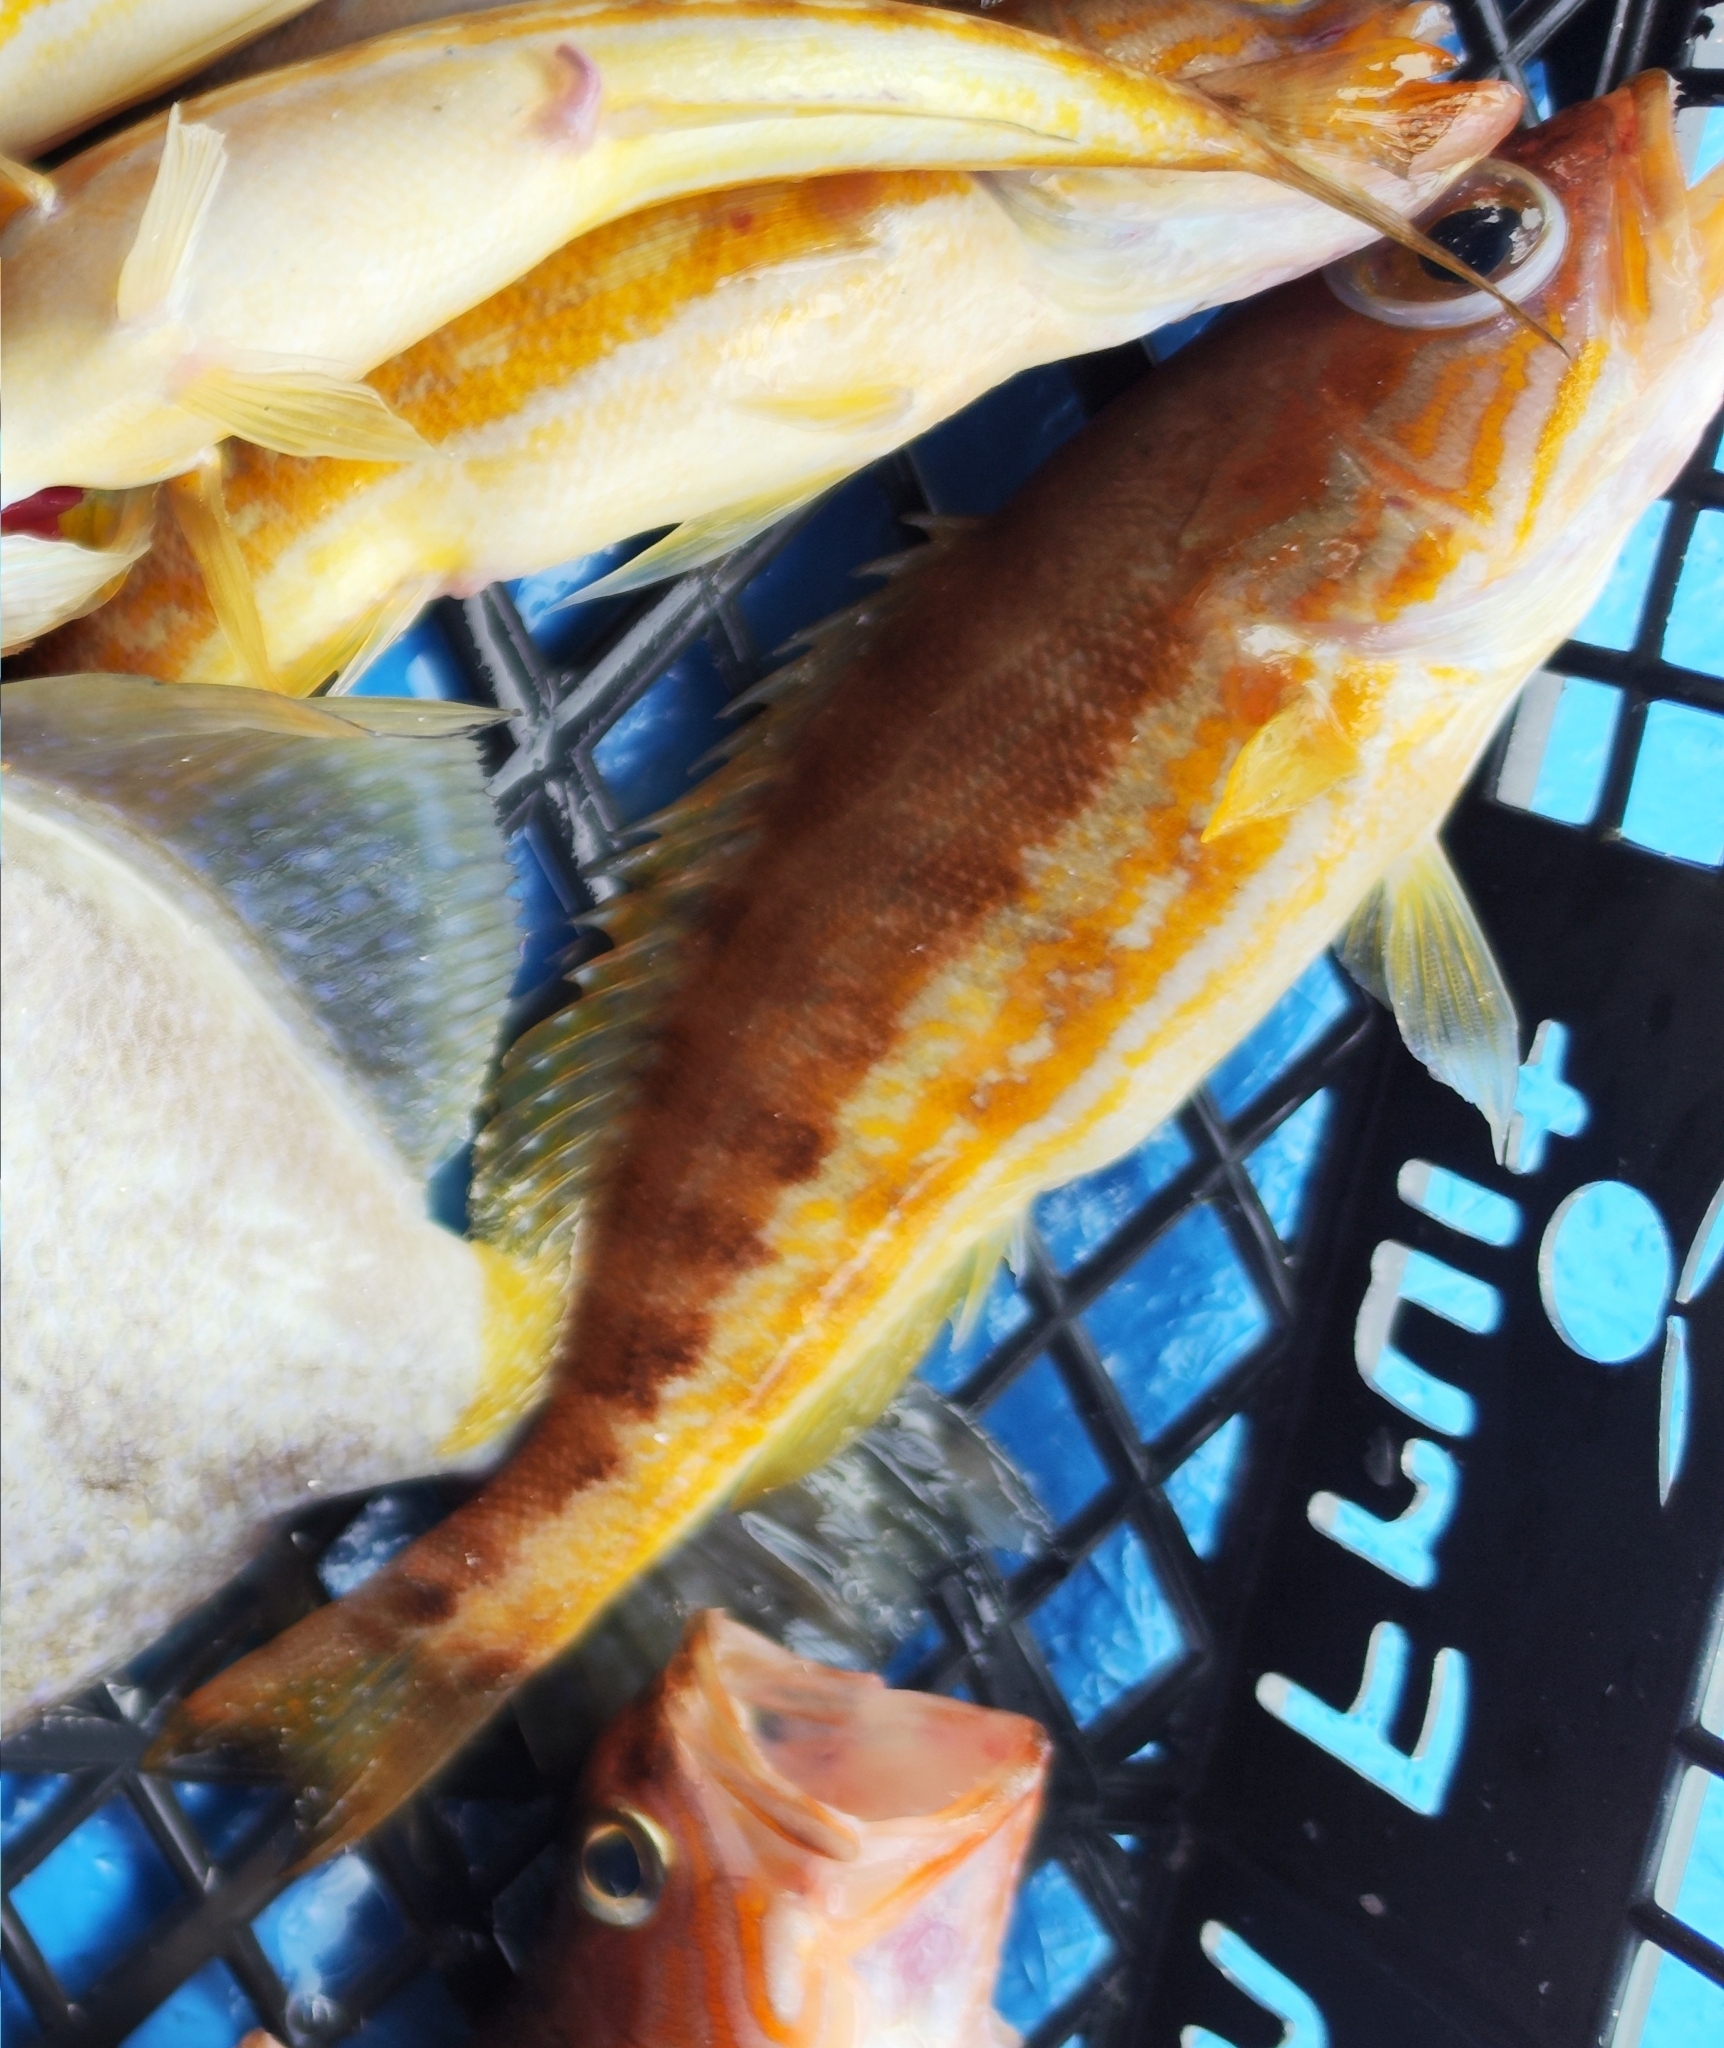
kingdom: Animalia
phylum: Chordata
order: Perciformes
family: Serranidae
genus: Serranus
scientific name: Serranus cabrilla
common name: Comber
